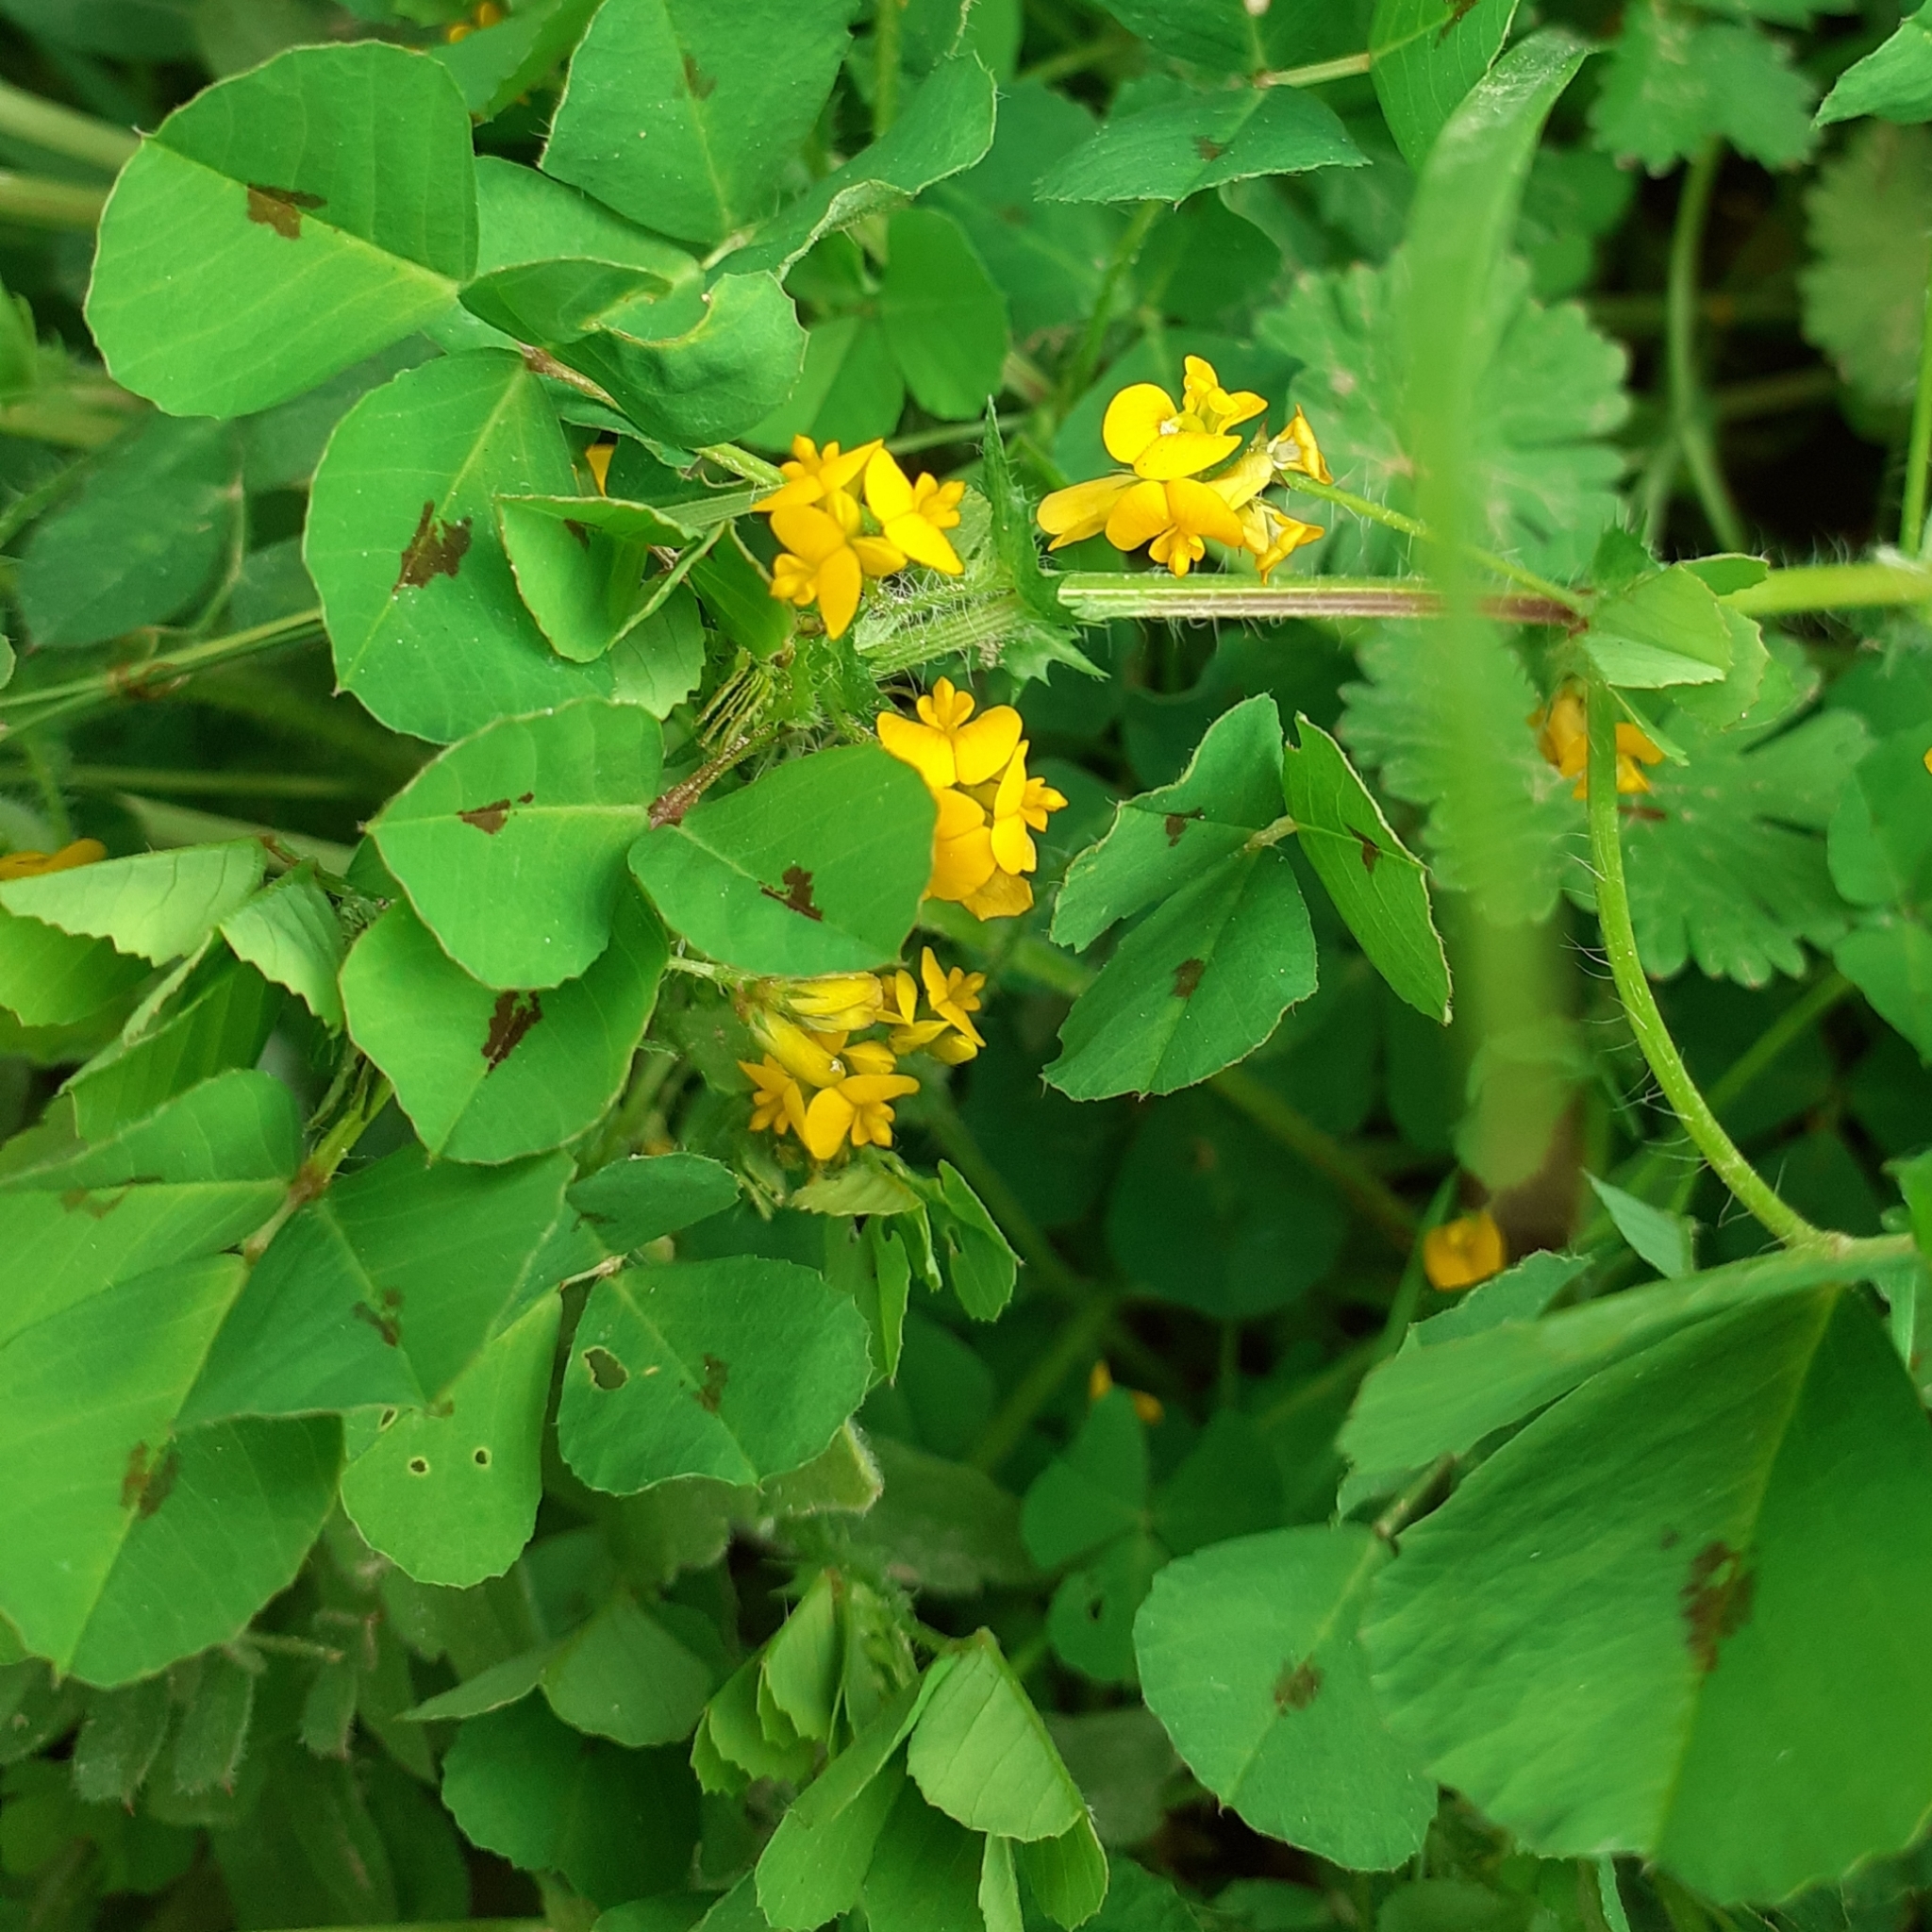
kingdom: Plantae
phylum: Tracheophyta
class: Magnoliopsida
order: Fabales
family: Fabaceae
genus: Medicago
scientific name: Medicago arabica
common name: Spotted medick
